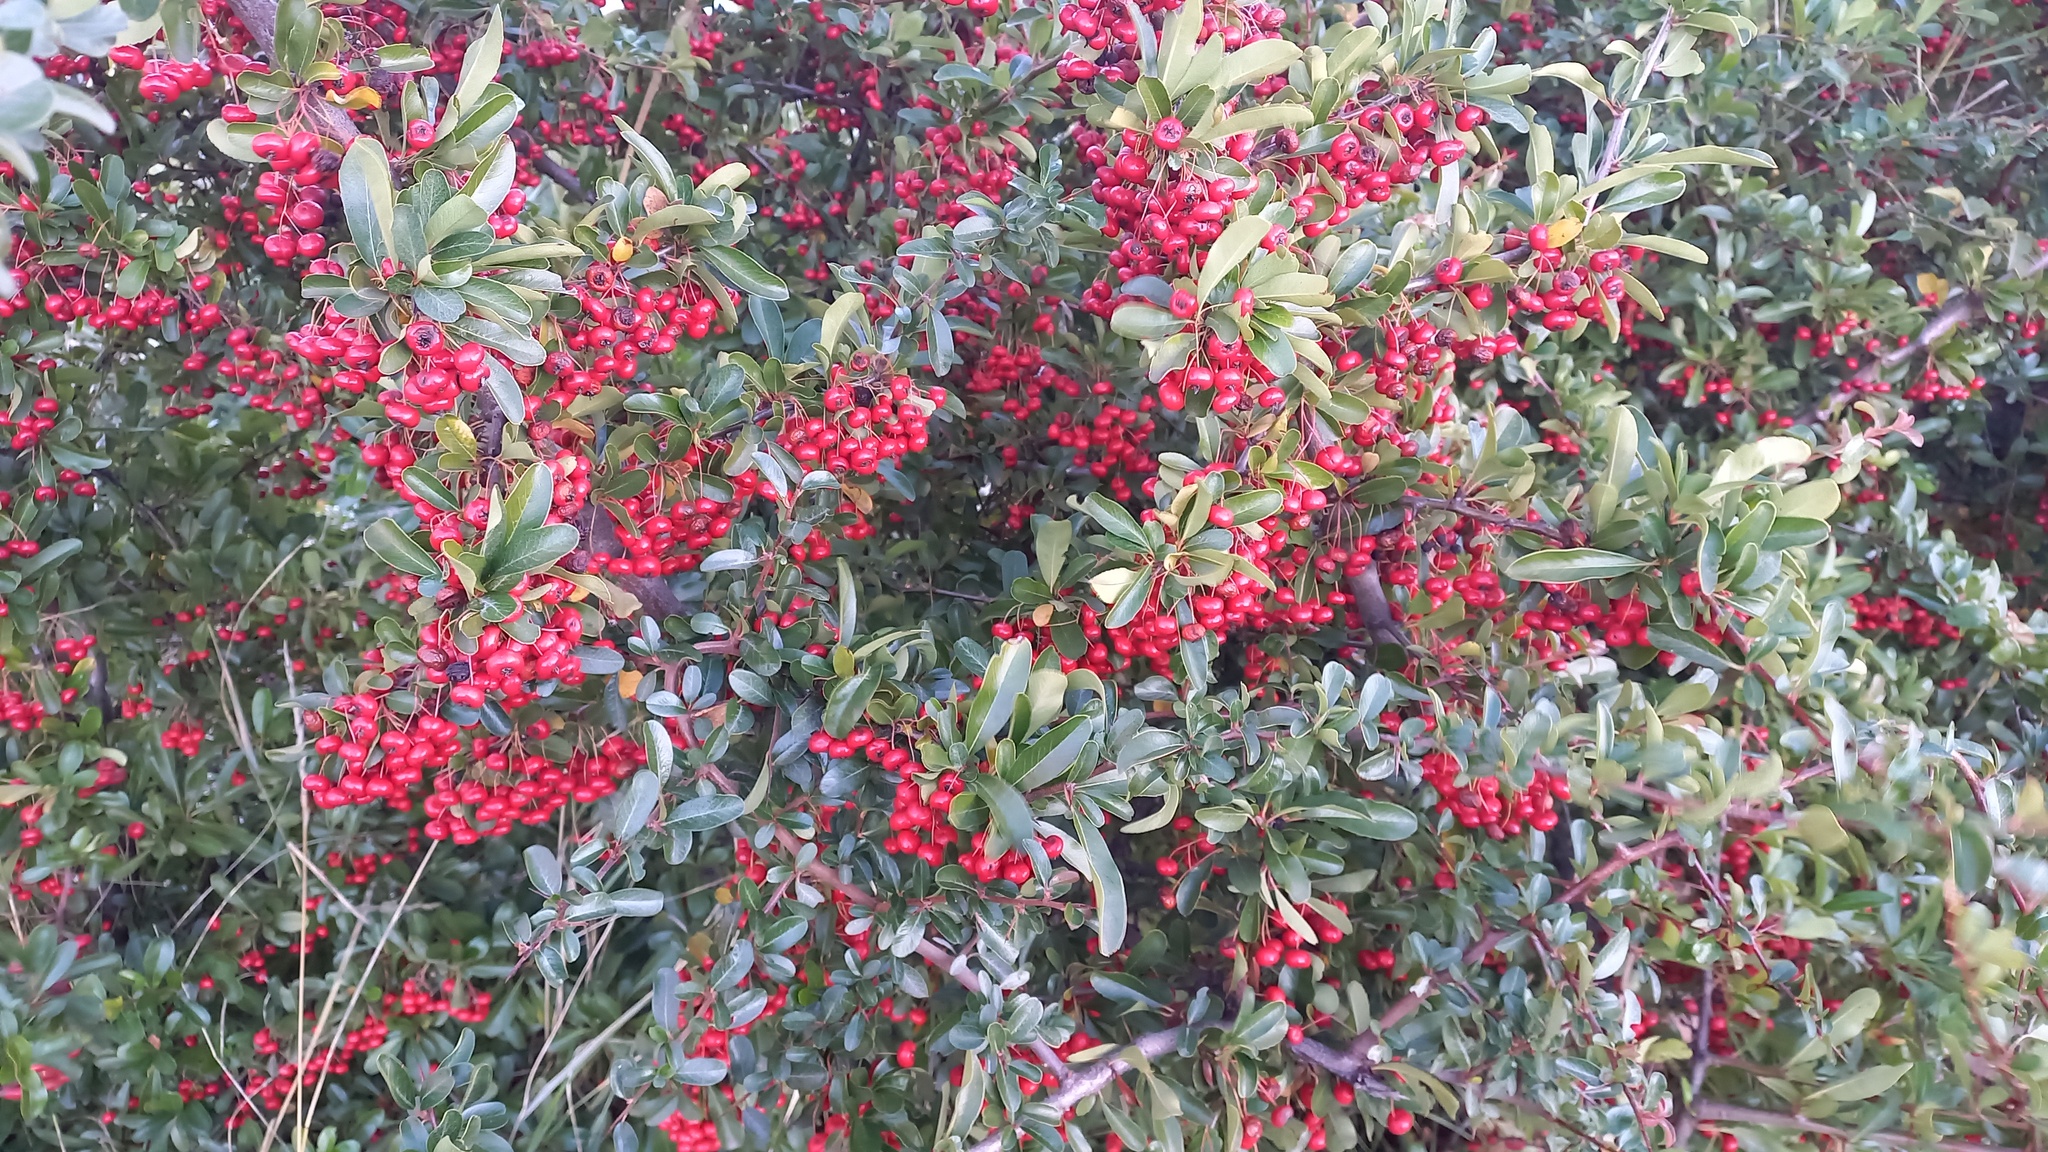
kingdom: Plantae
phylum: Tracheophyta
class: Magnoliopsida
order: Rosales
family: Rosaceae
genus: Pyracantha
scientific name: Pyracantha coccinea
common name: Firethorn
